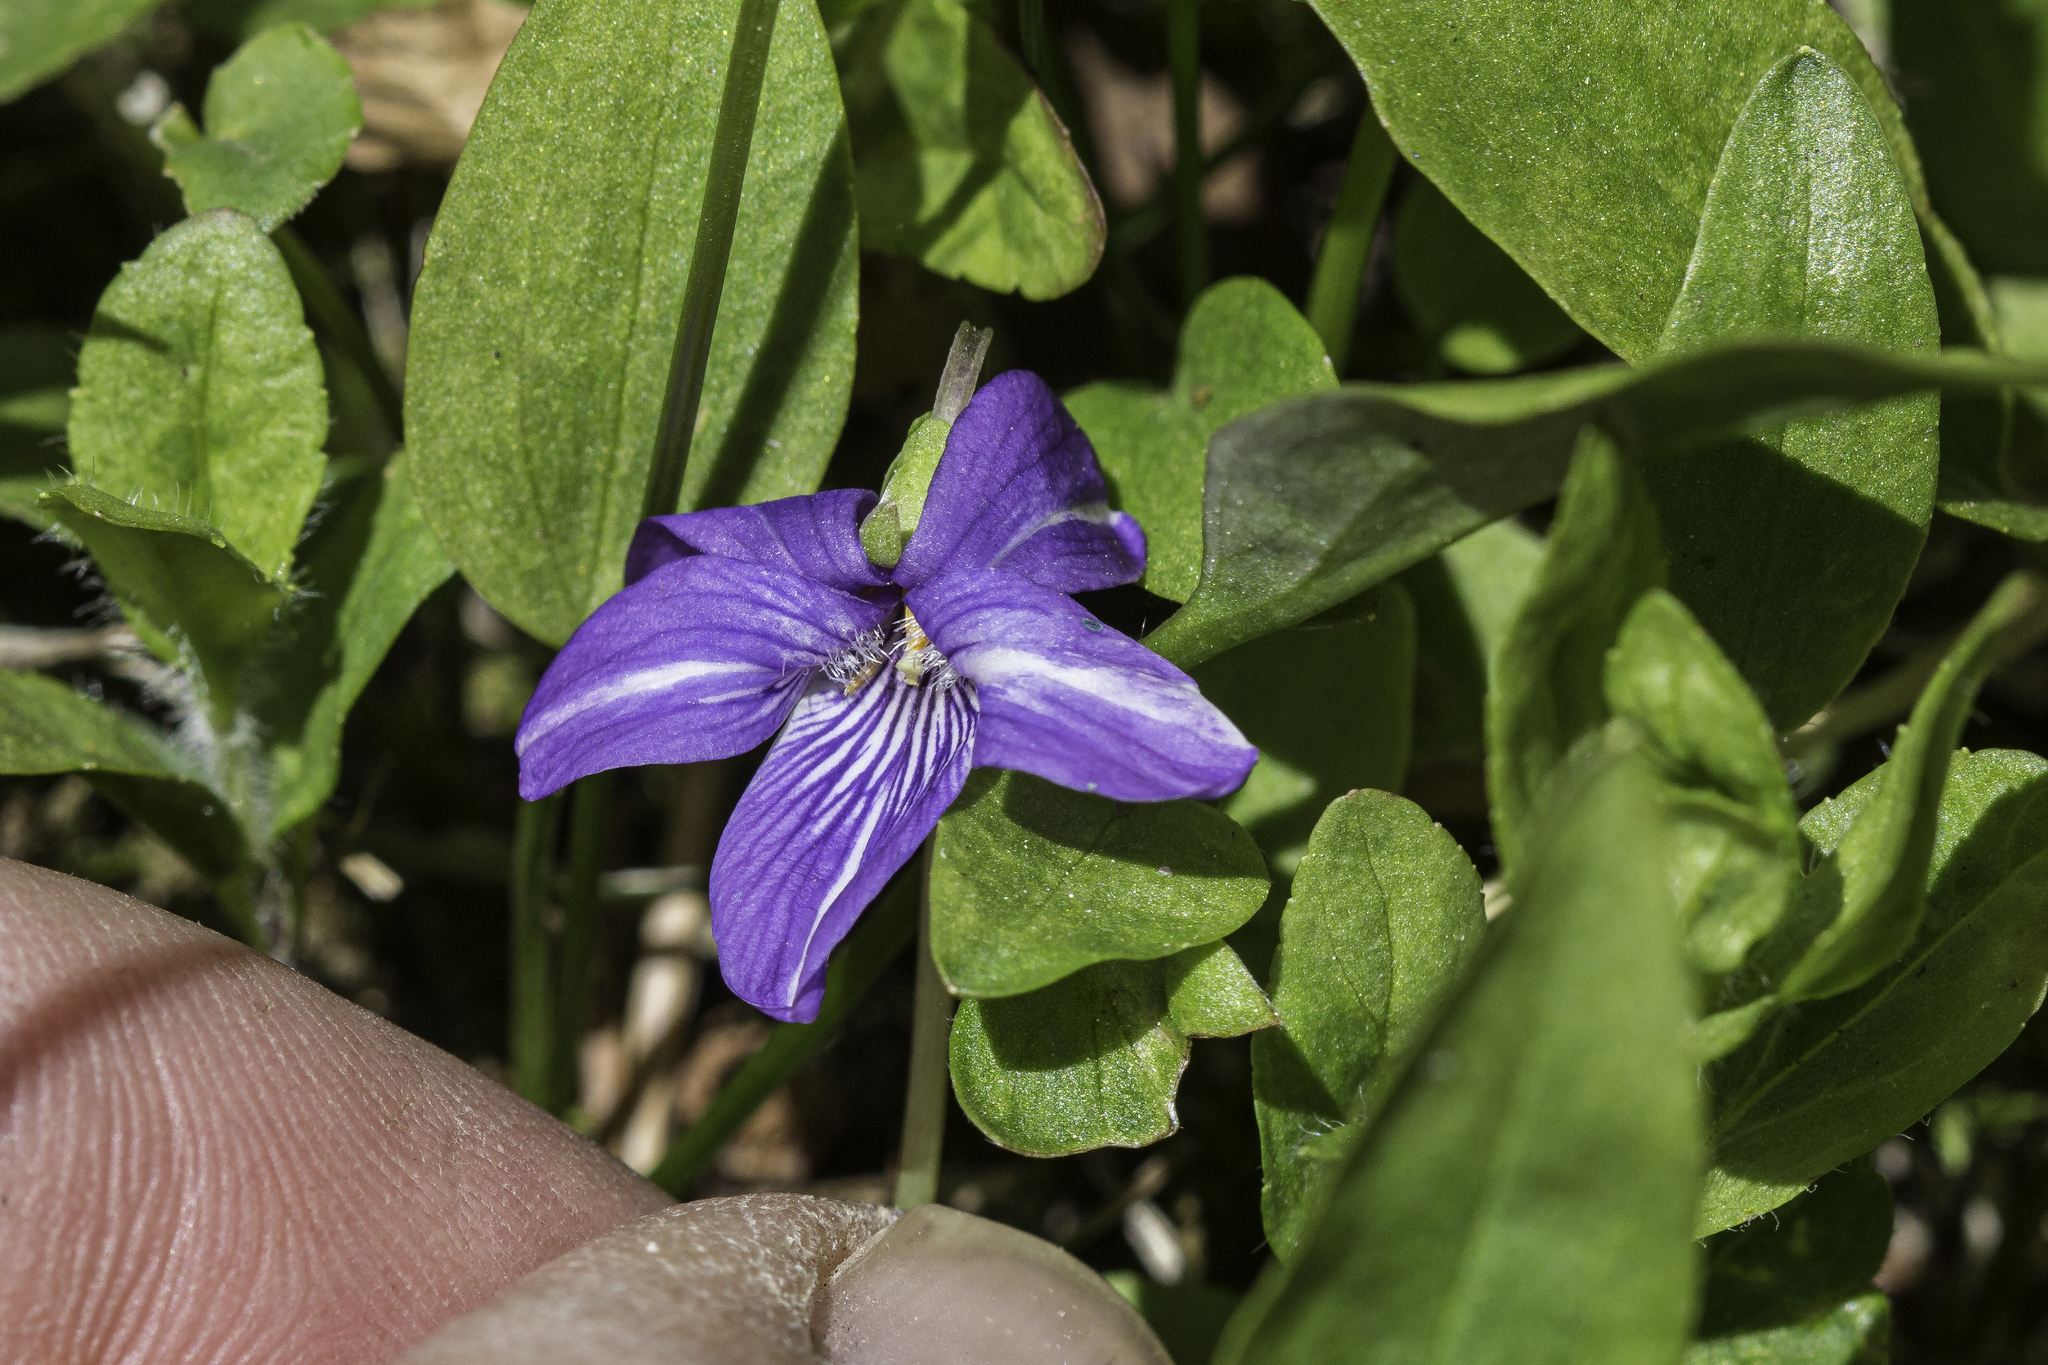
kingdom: Plantae
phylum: Tracheophyta
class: Magnoliopsida
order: Malpighiales
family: Violaceae
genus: Viola
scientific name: Viola nephrophylla
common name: Blue meadow violet
